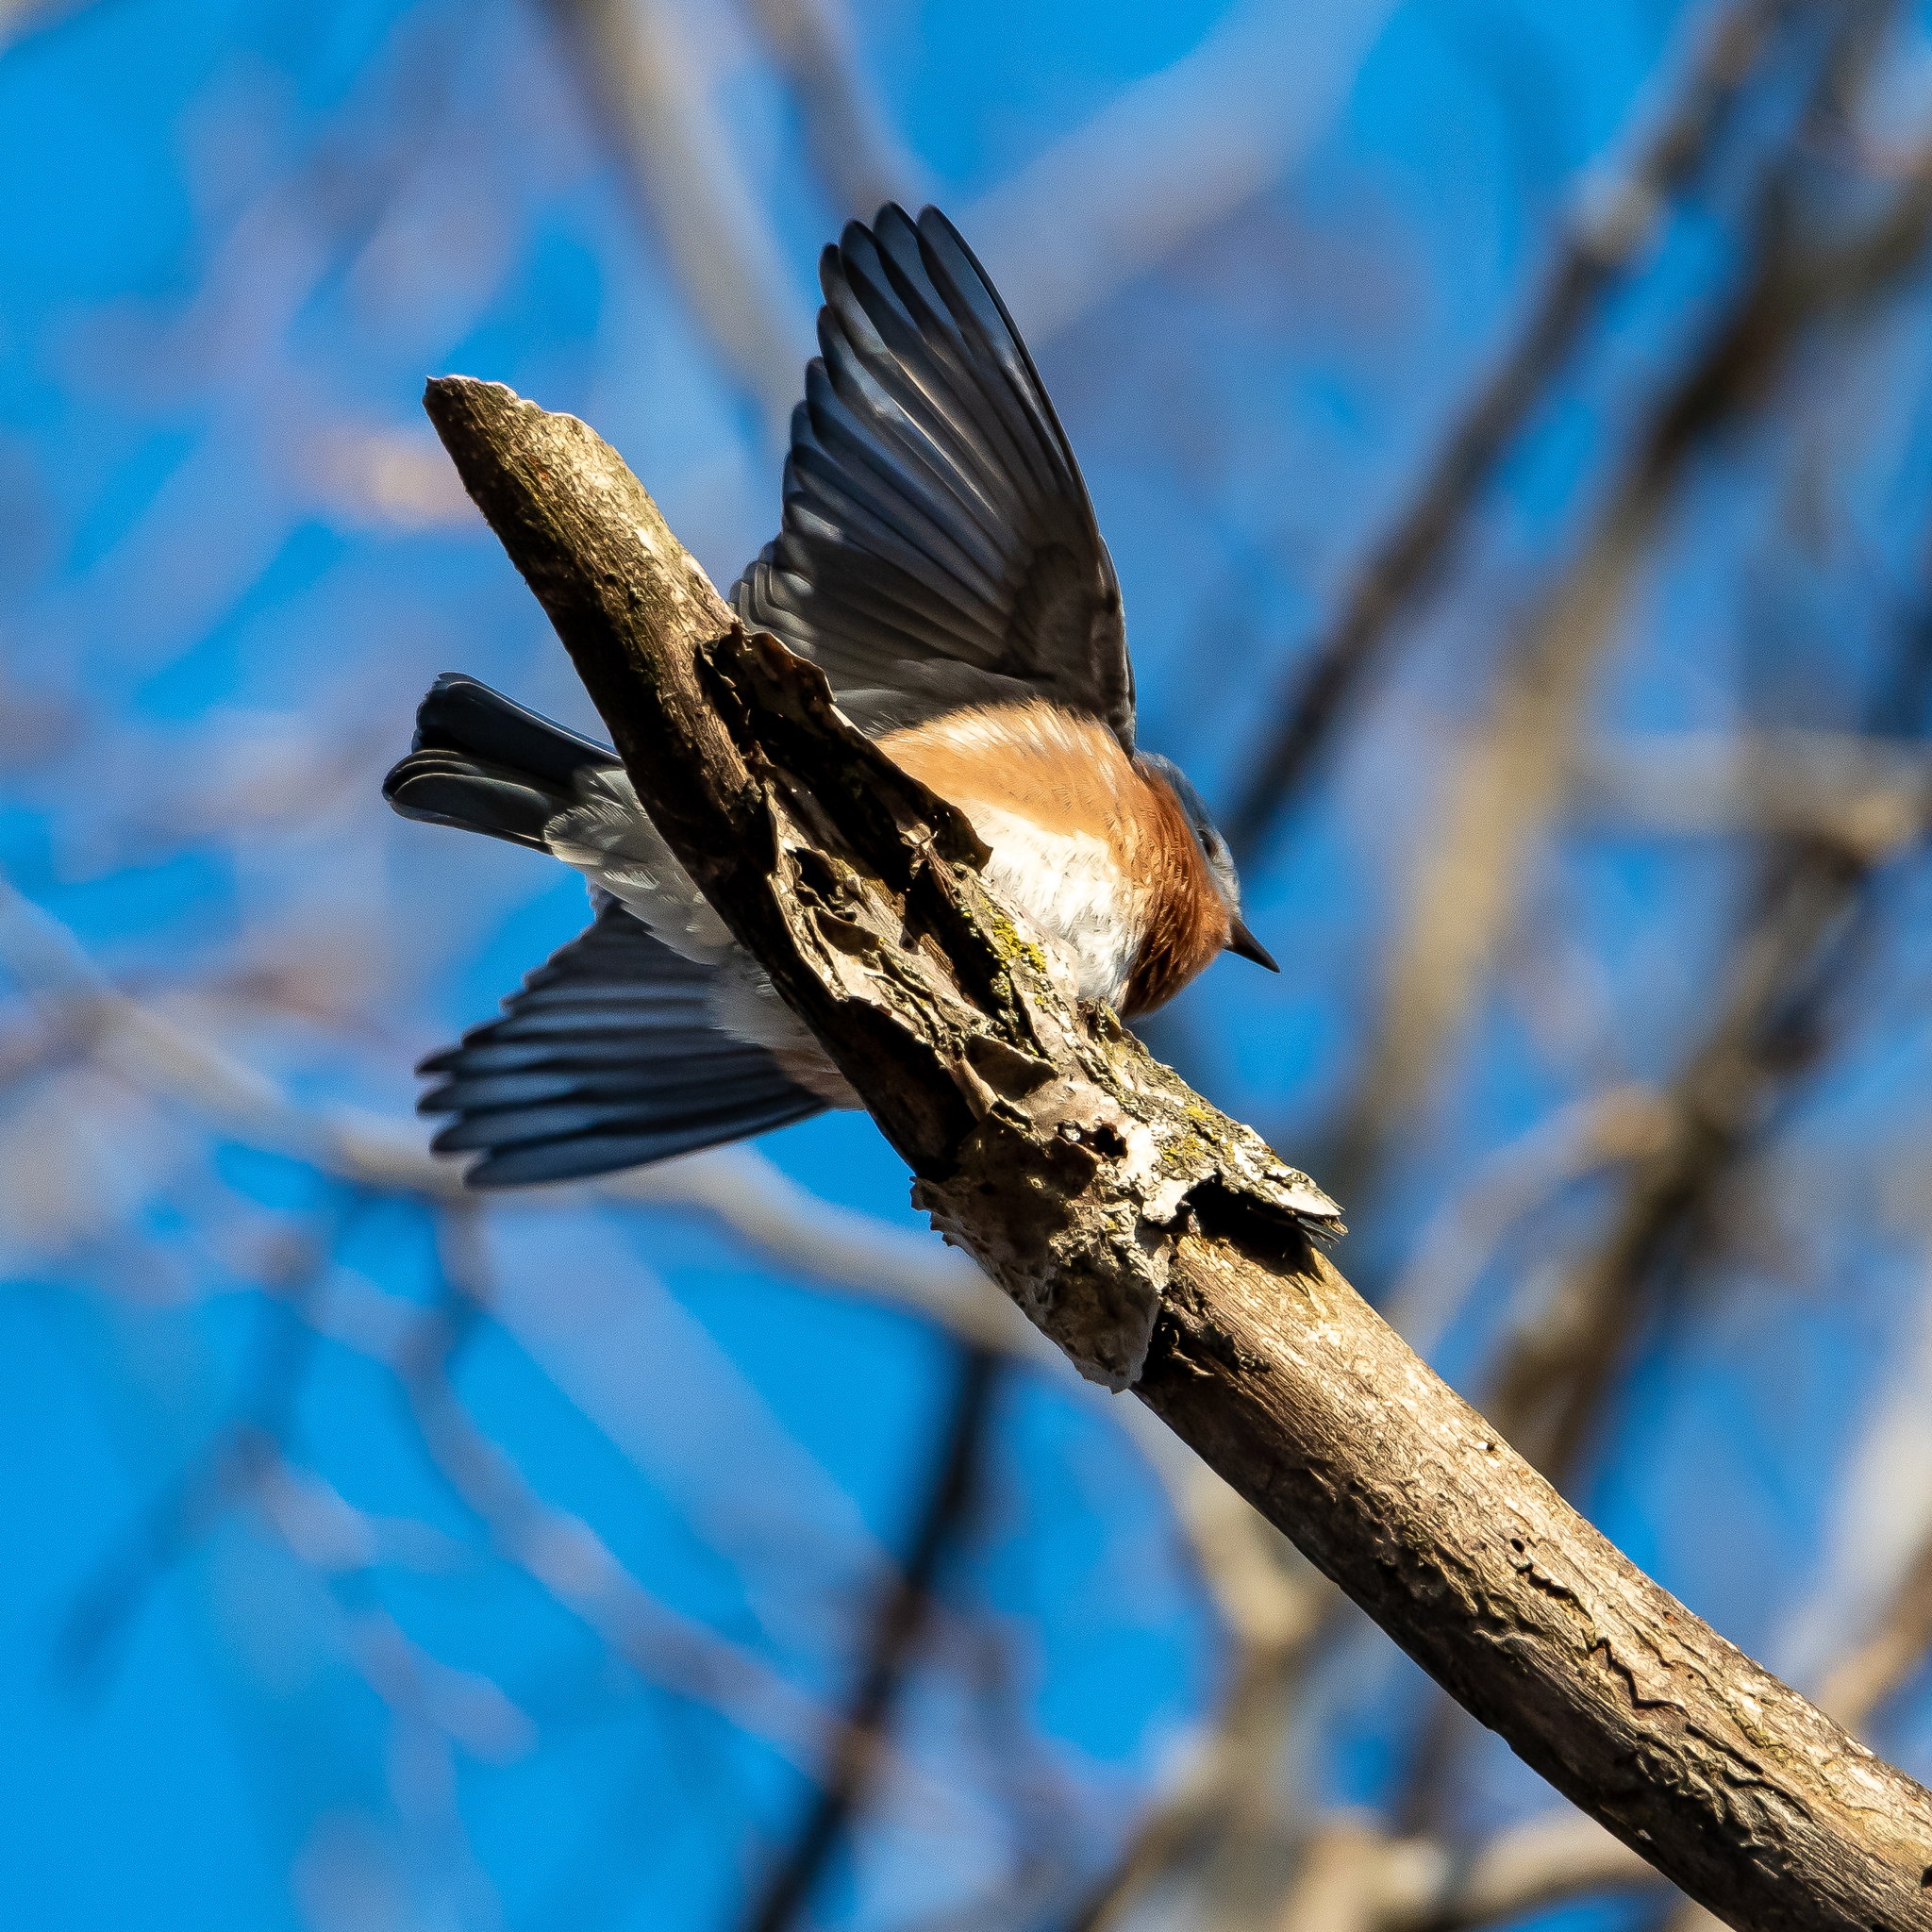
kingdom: Animalia
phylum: Chordata
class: Aves
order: Passeriformes
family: Turdidae
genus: Sialia
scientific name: Sialia sialis
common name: Eastern bluebird
